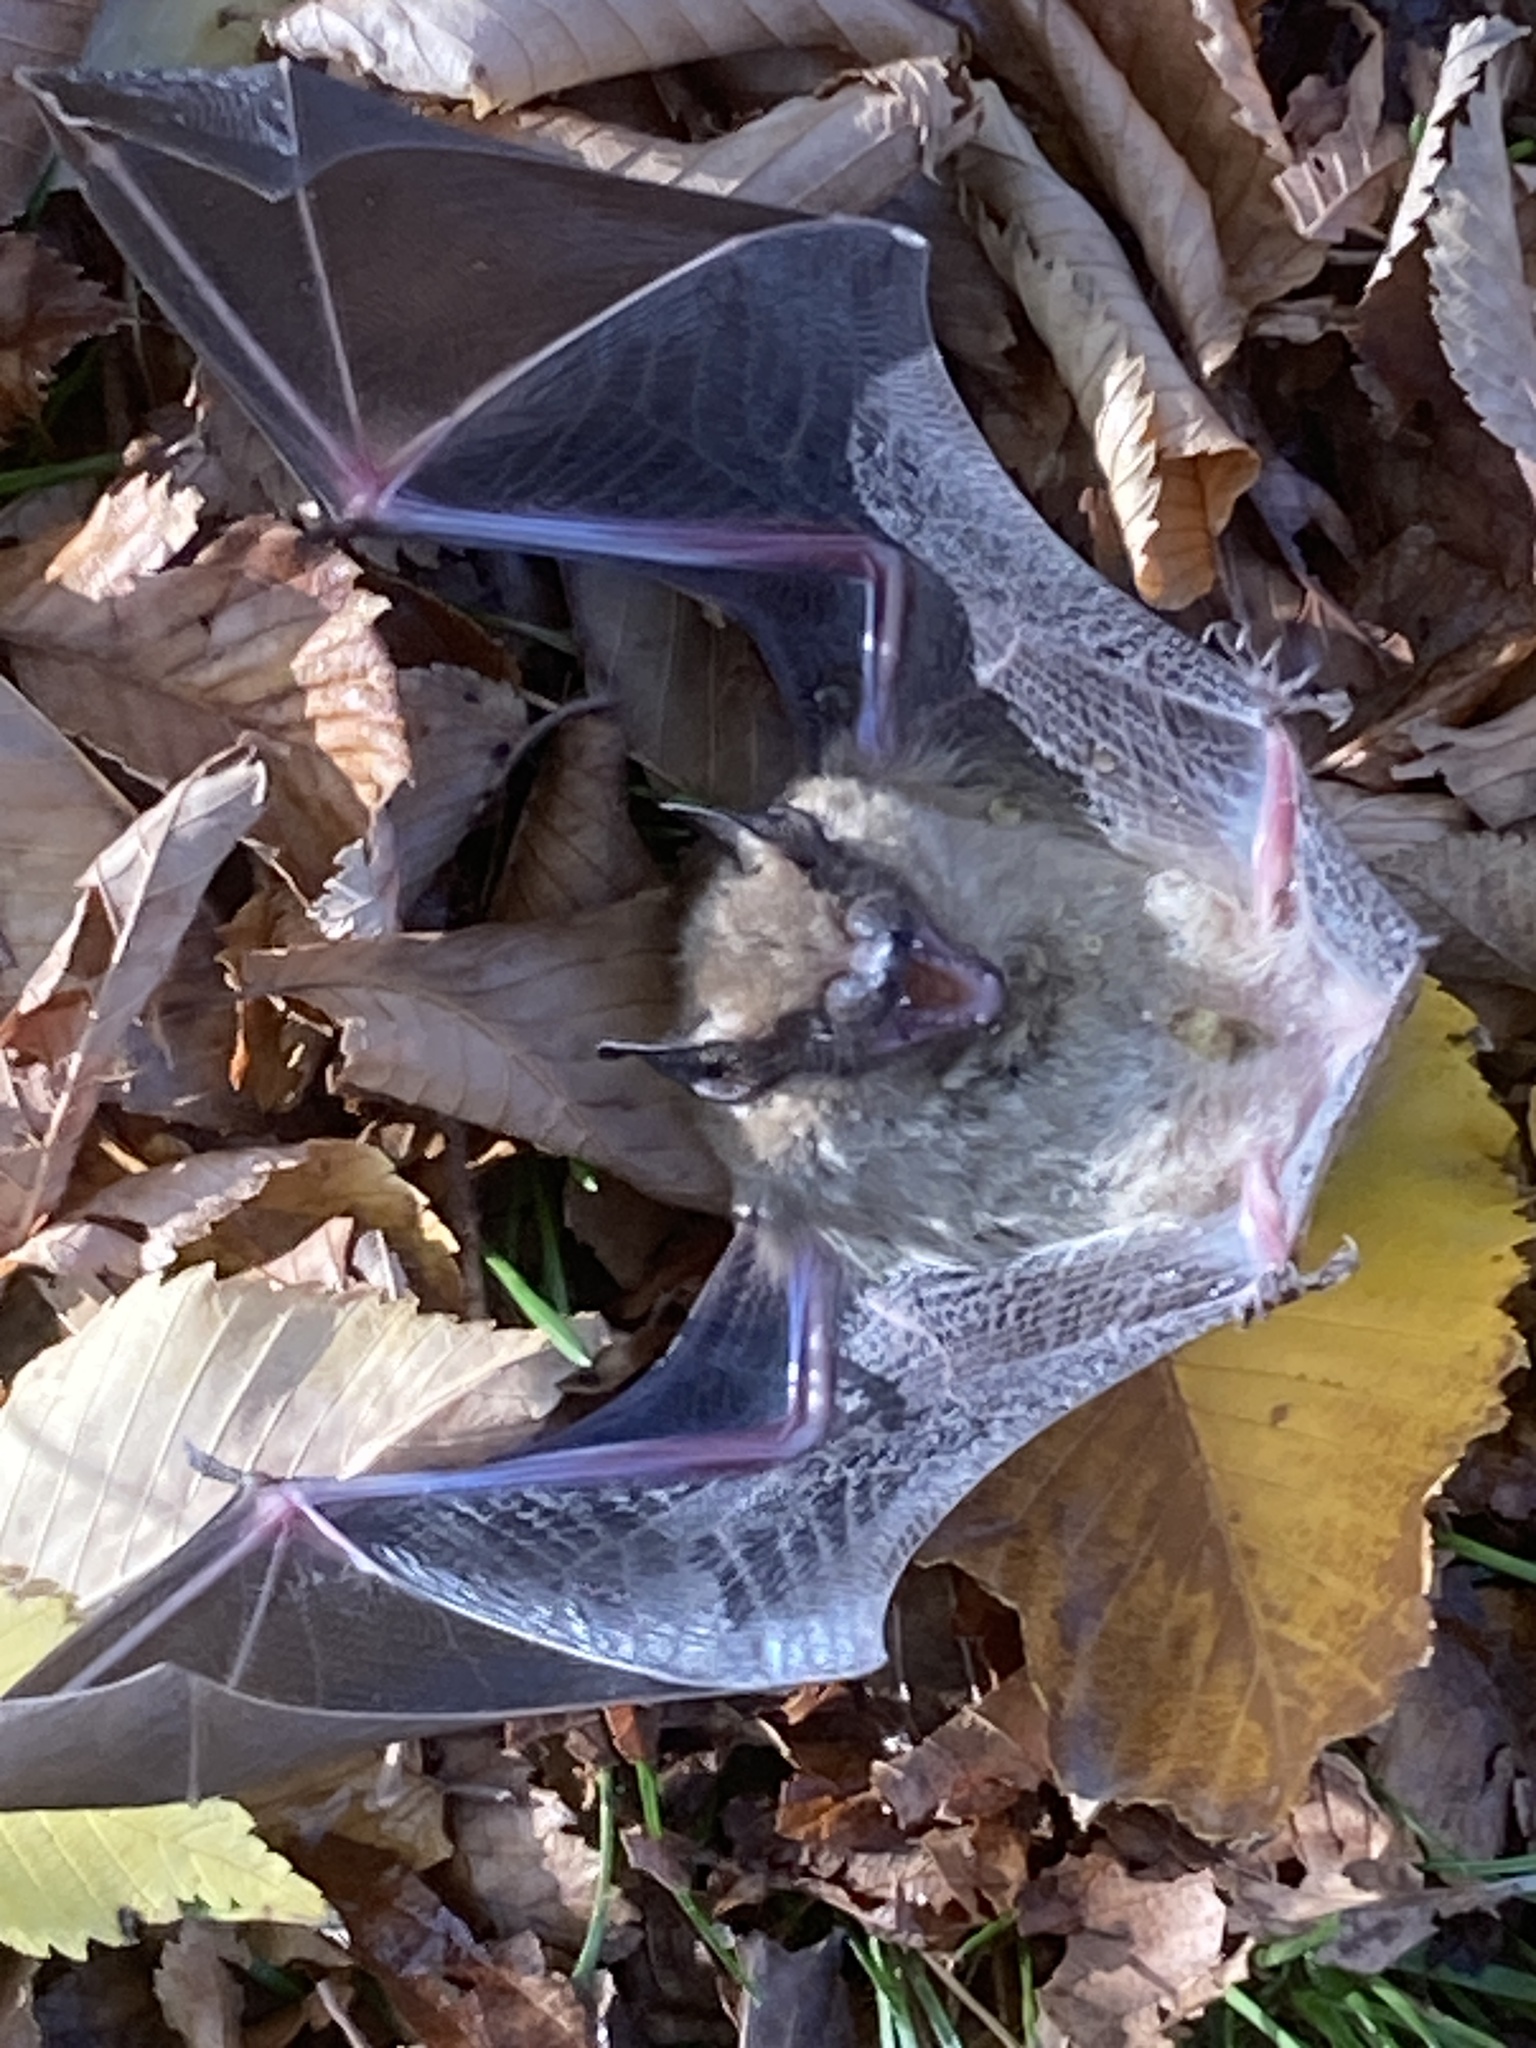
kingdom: Animalia
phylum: Chordata
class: Mammalia
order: Chiroptera
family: Vespertilionidae
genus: Eptesicus
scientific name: Eptesicus fuscus
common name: Big brown bat
